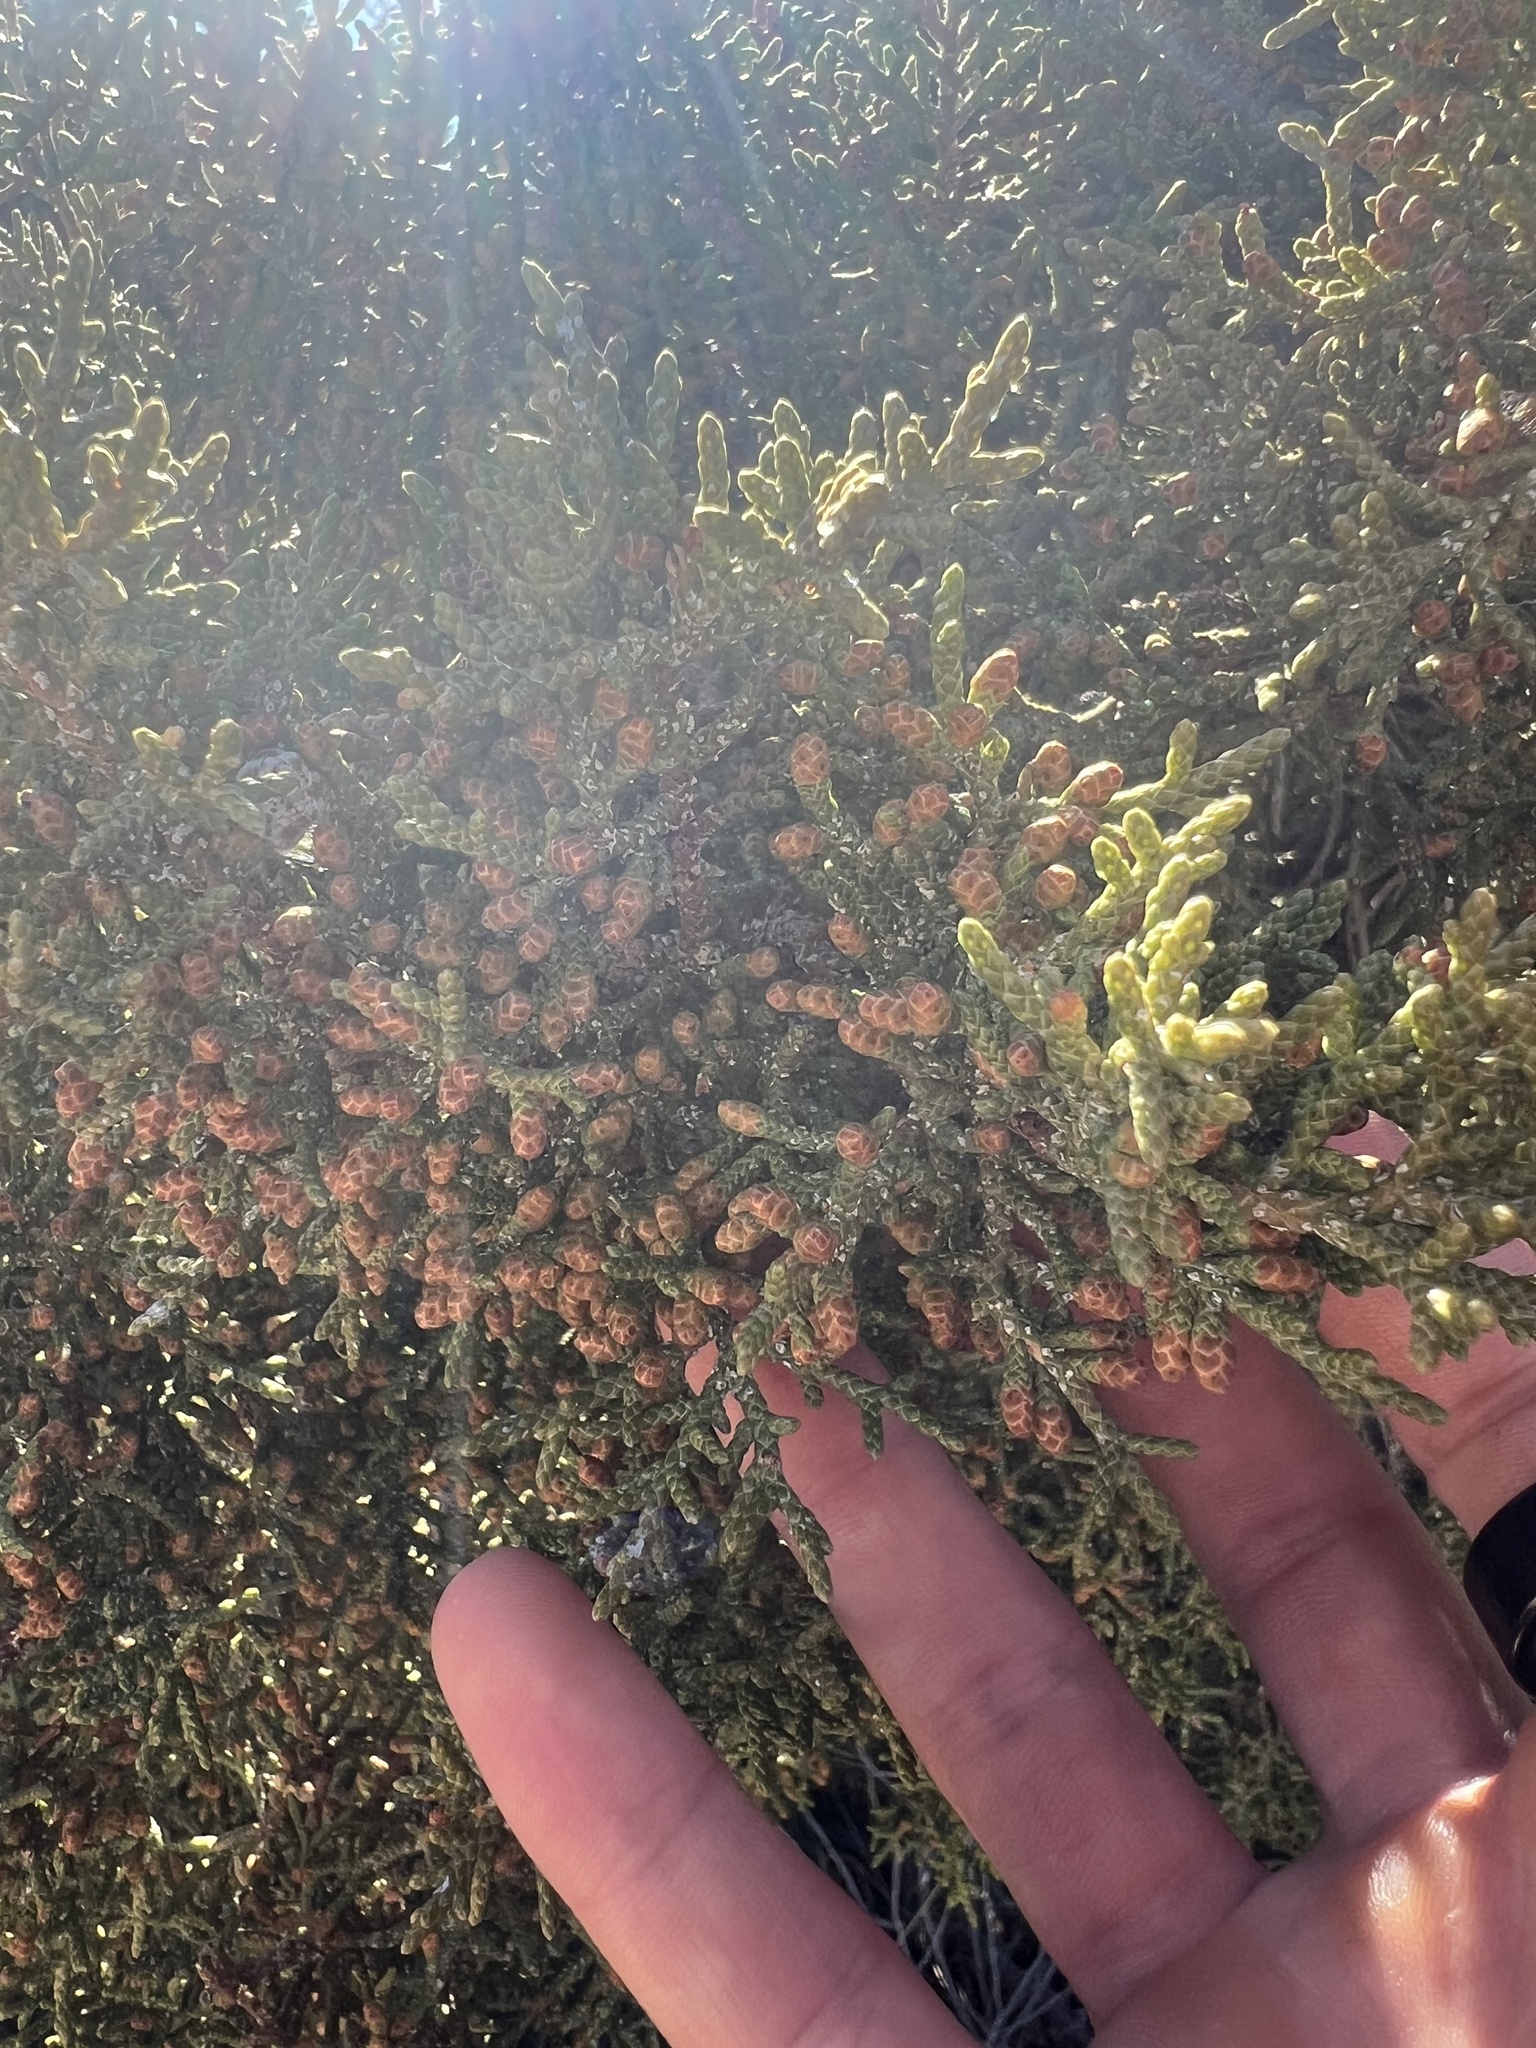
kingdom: Plantae
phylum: Tracheophyta
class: Pinopsida
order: Pinales
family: Cupressaceae
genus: Juniperus
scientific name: Juniperus californica
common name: California juniper
